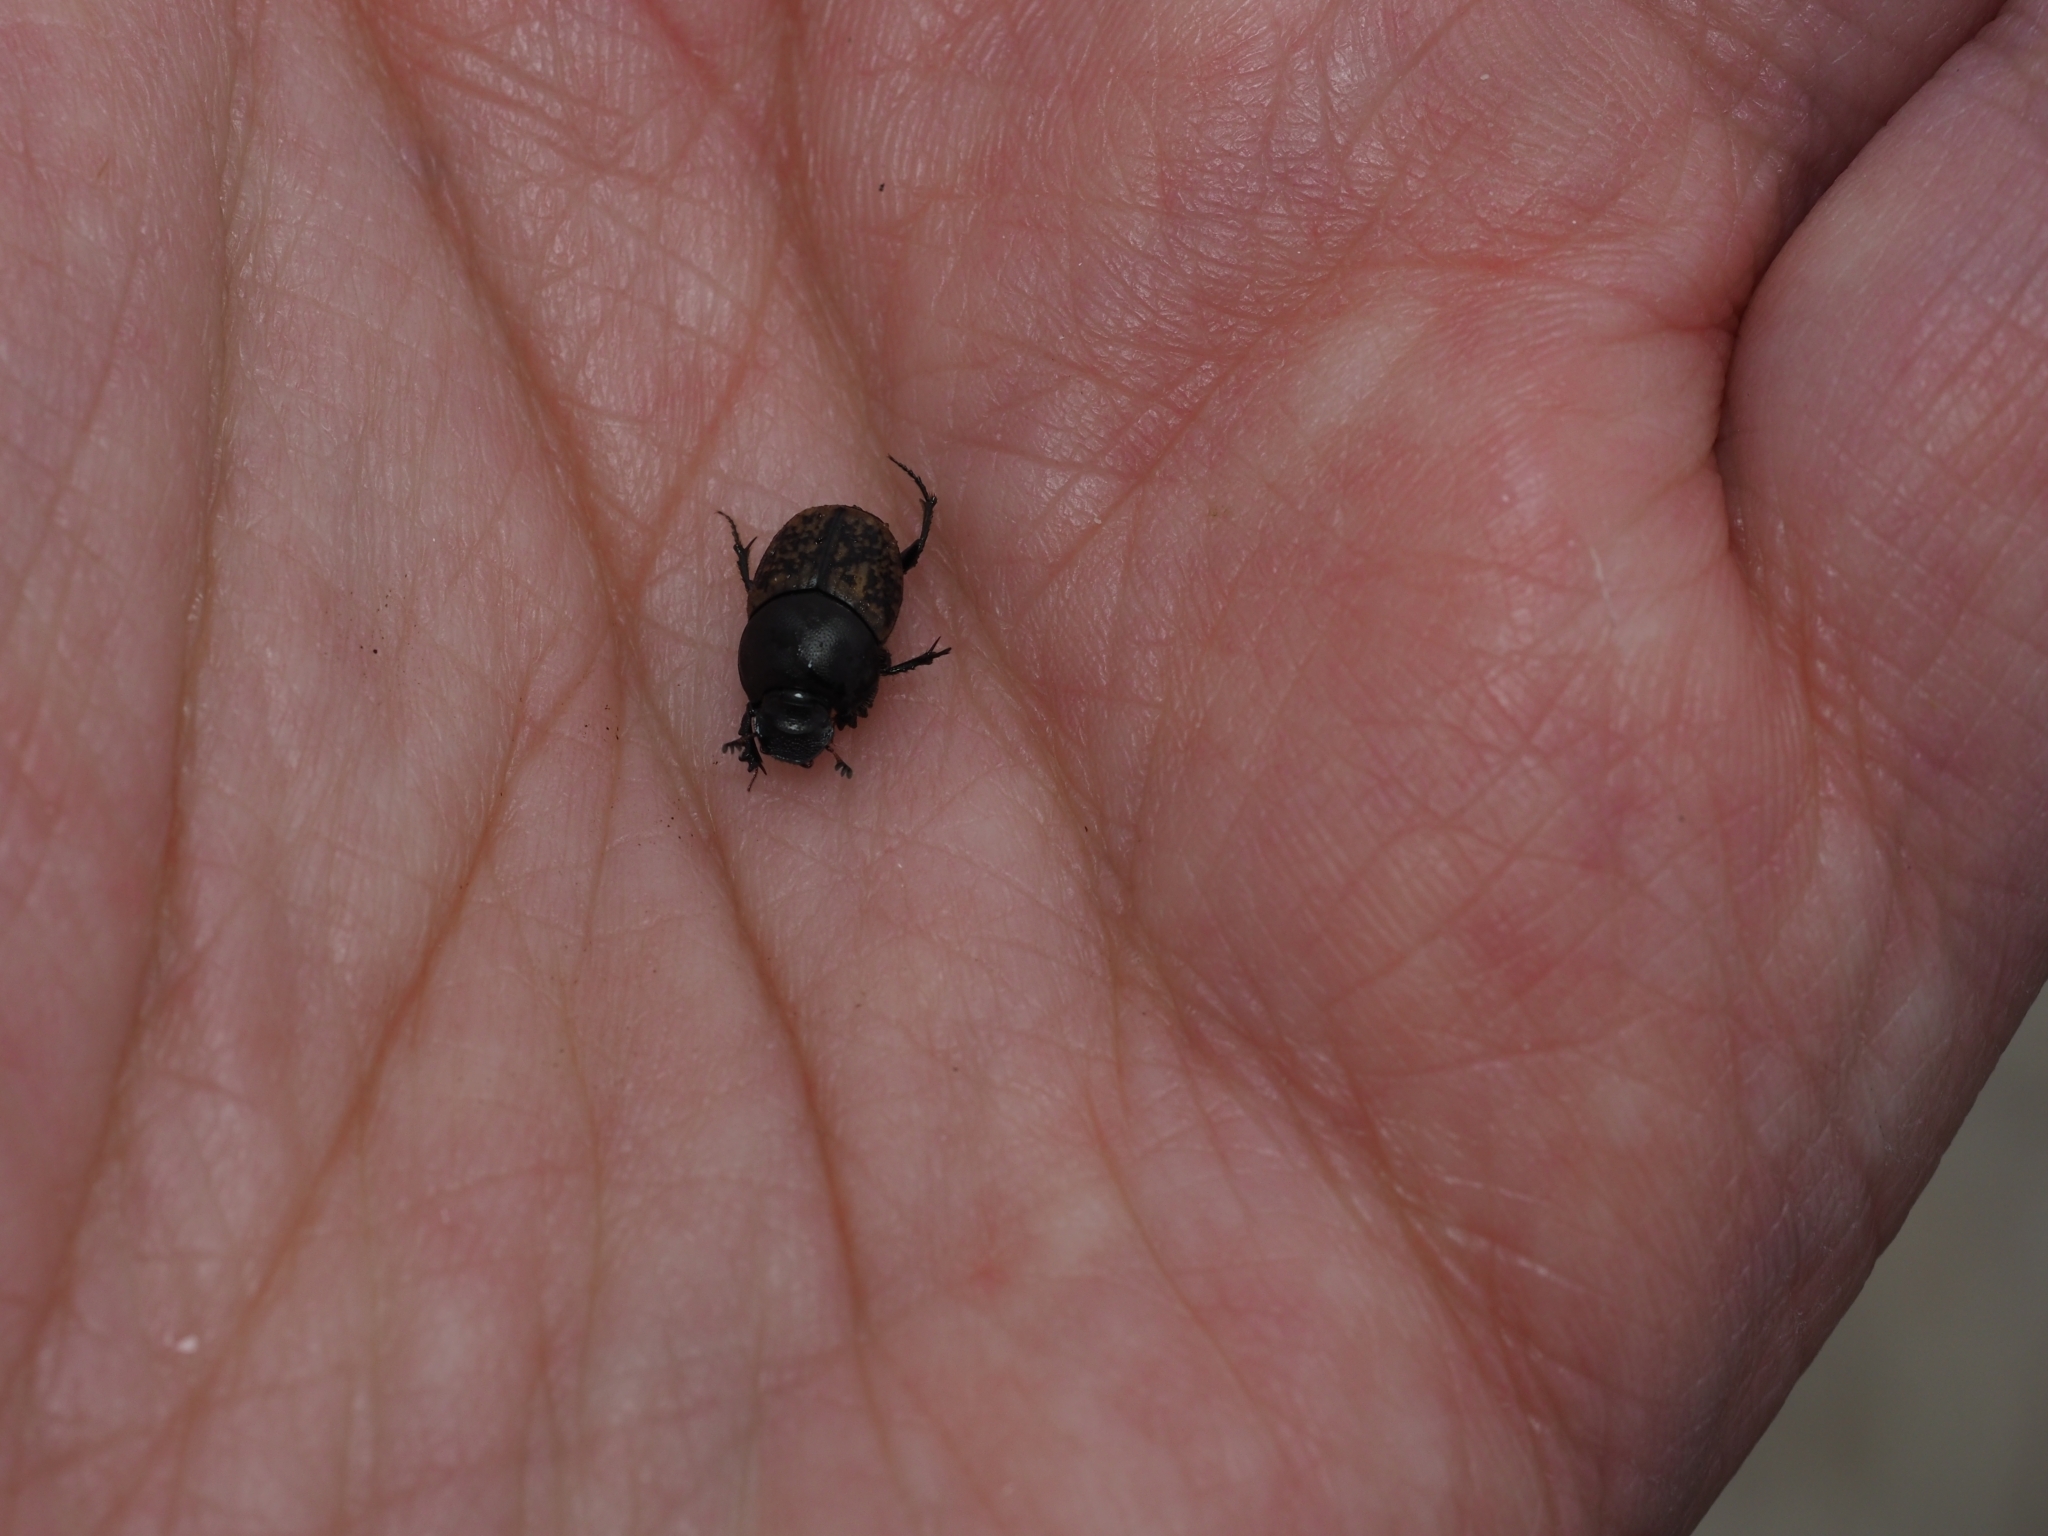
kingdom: Animalia
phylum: Arthropoda
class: Insecta
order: Coleoptera
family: Scarabaeidae
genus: Onthophagus
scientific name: Onthophagus similis
